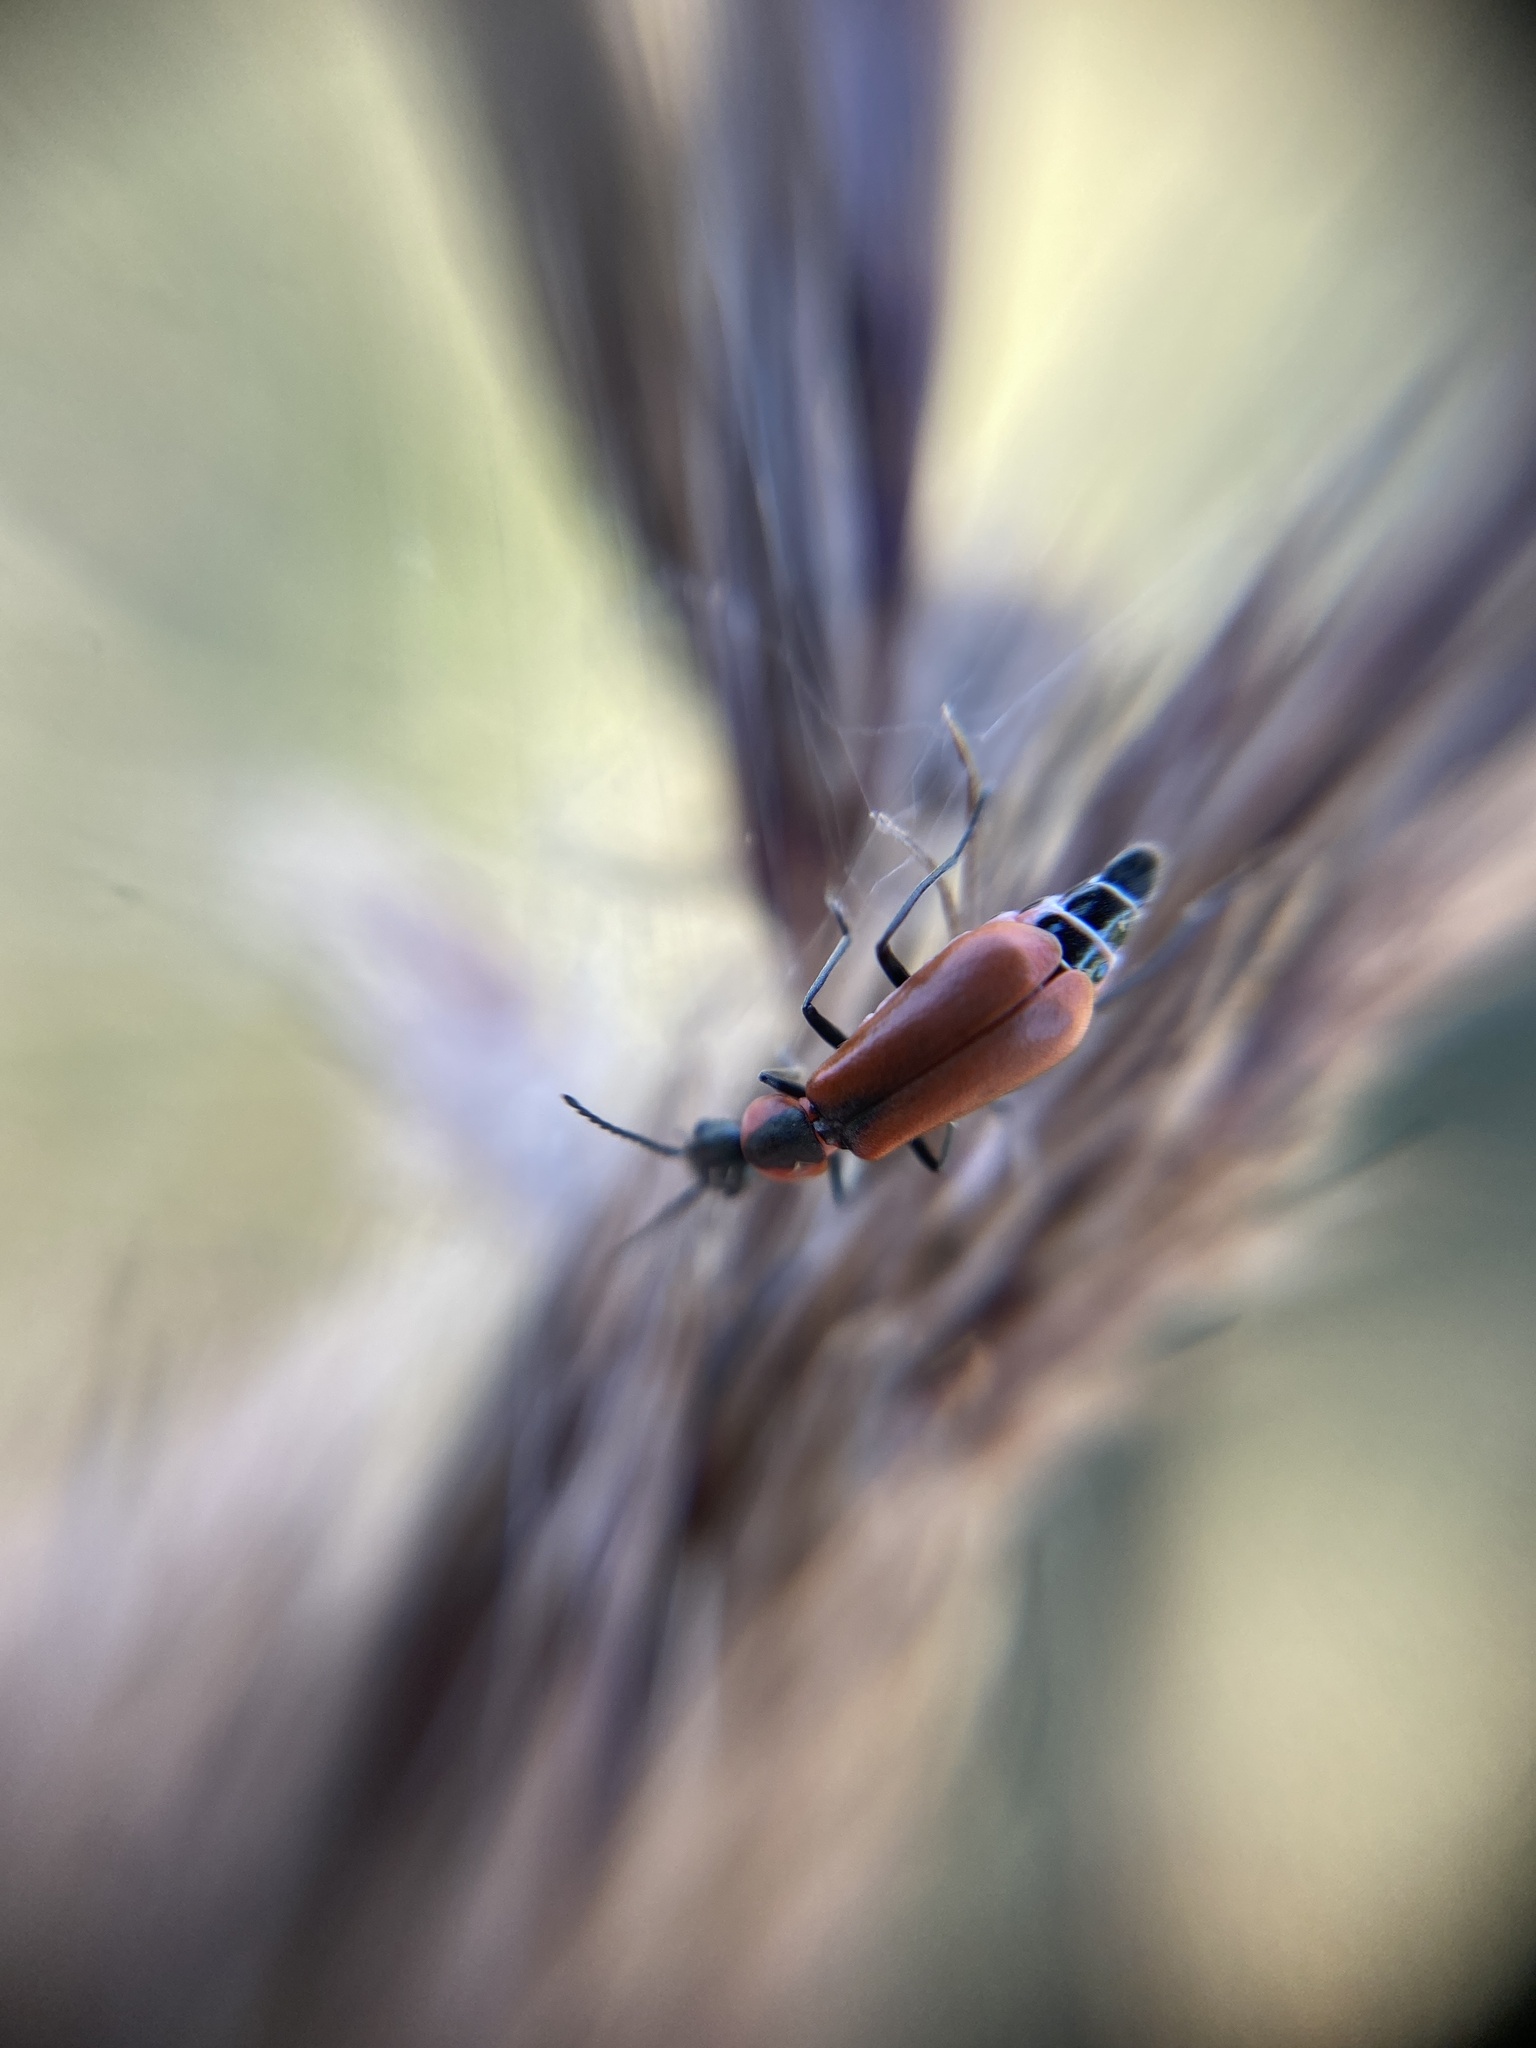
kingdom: Animalia
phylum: Arthropoda
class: Insecta
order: Coleoptera
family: Melyridae
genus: Anthocomus
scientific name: Anthocomus rufus
